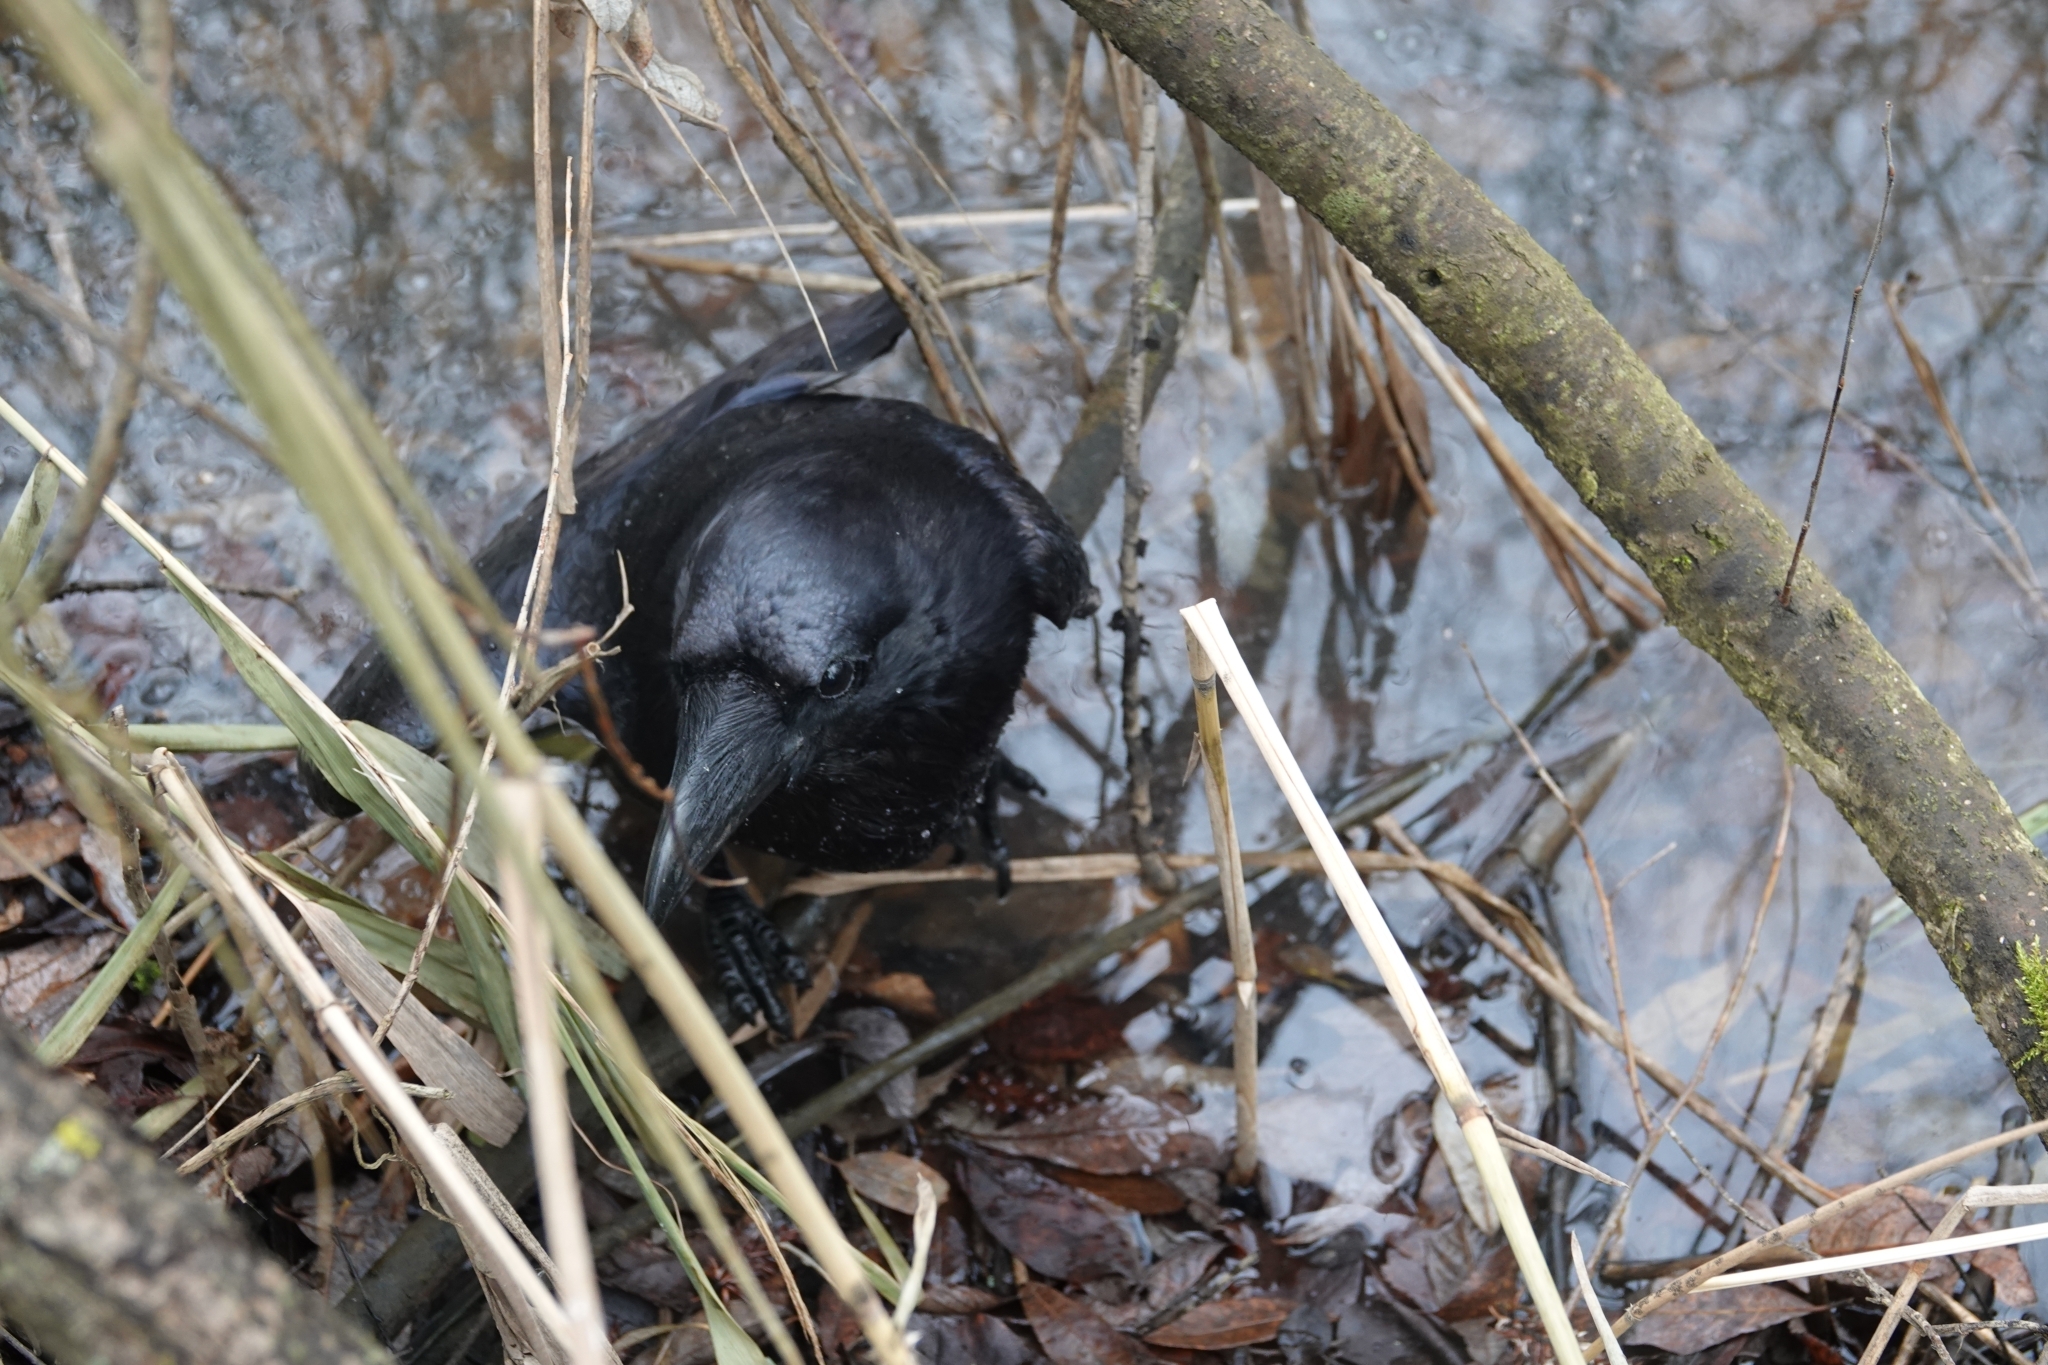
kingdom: Animalia
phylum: Chordata
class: Aves
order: Passeriformes
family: Corvidae
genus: Corvus
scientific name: Corvus corax
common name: Common raven
